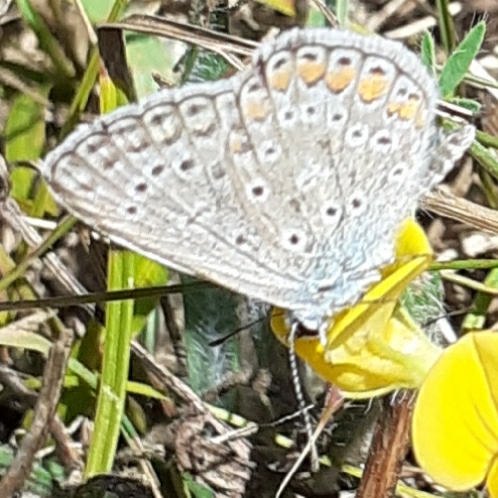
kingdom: Animalia
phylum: Arthropoda
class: Insecta
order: Lepidoptera
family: Lycaenidae
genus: Polyommatus
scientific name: Polyommatus icarus
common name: Common blue
